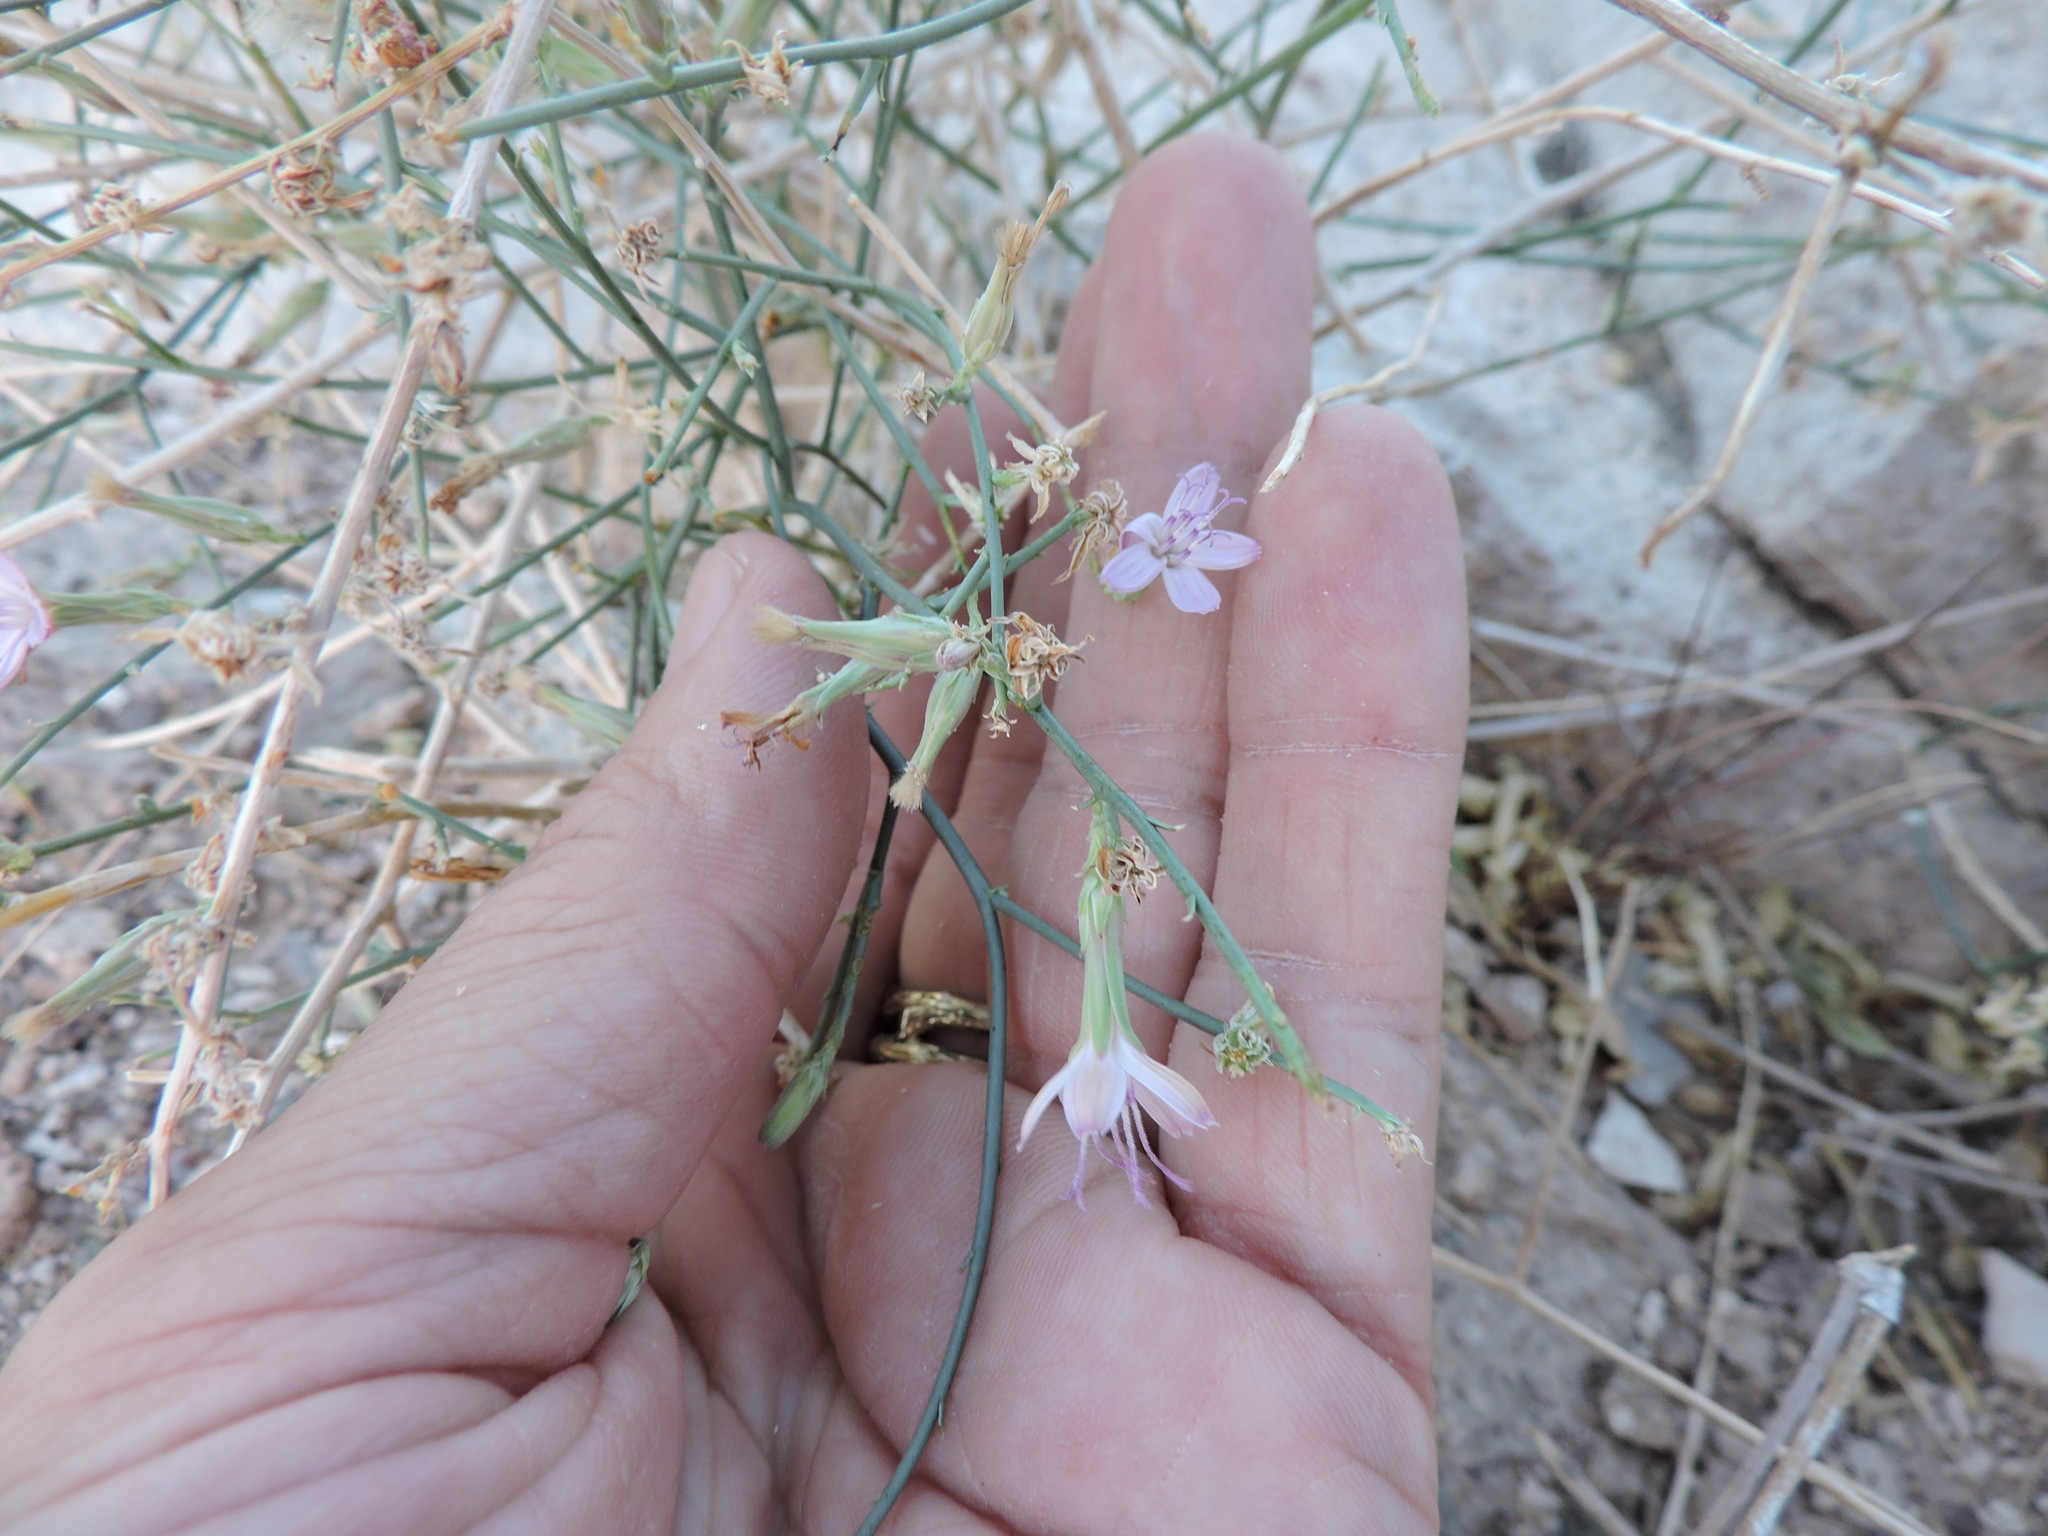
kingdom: Plantae
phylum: Tracheophyta
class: Magnoliopsida
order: Asterales
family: Asteraceae
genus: Stephanomeria
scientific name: Stephanomeria pauciflora
